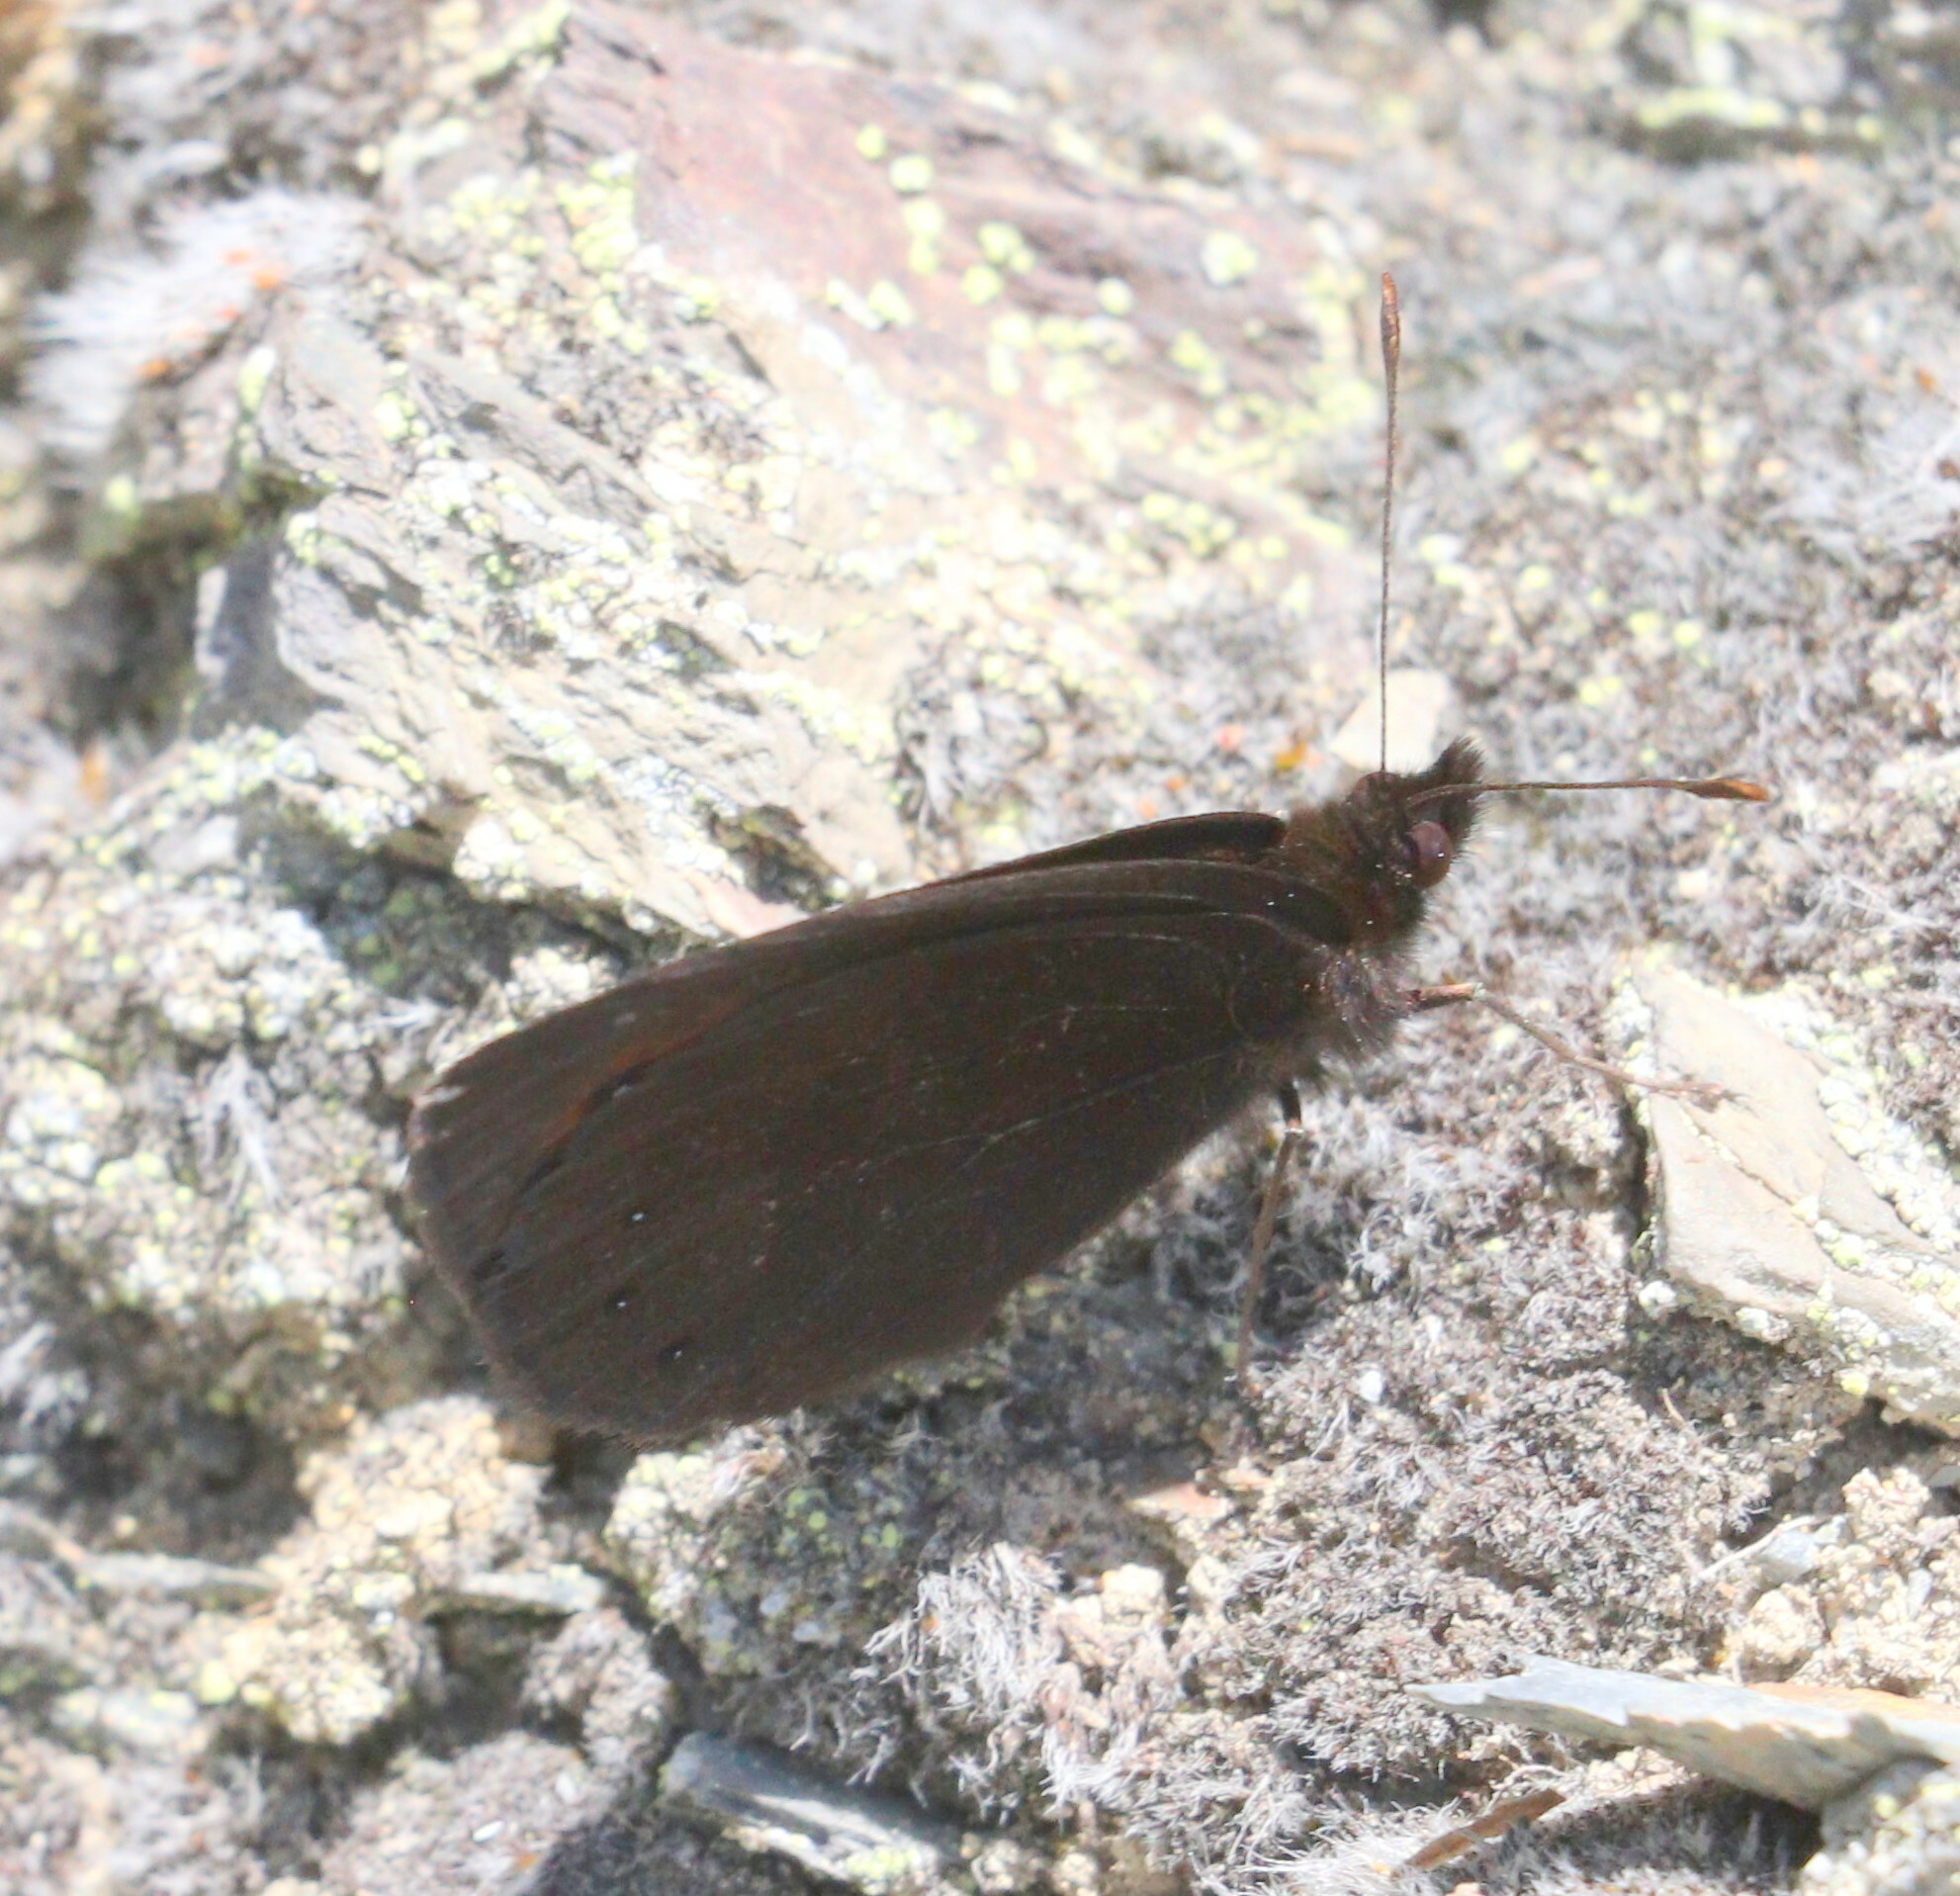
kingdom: Animalia
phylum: Arthropoda
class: Insecta
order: Lepidoptera
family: Nymphalidae
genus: Erebia
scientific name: Erebia meolans
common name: Piedmont ringlet
